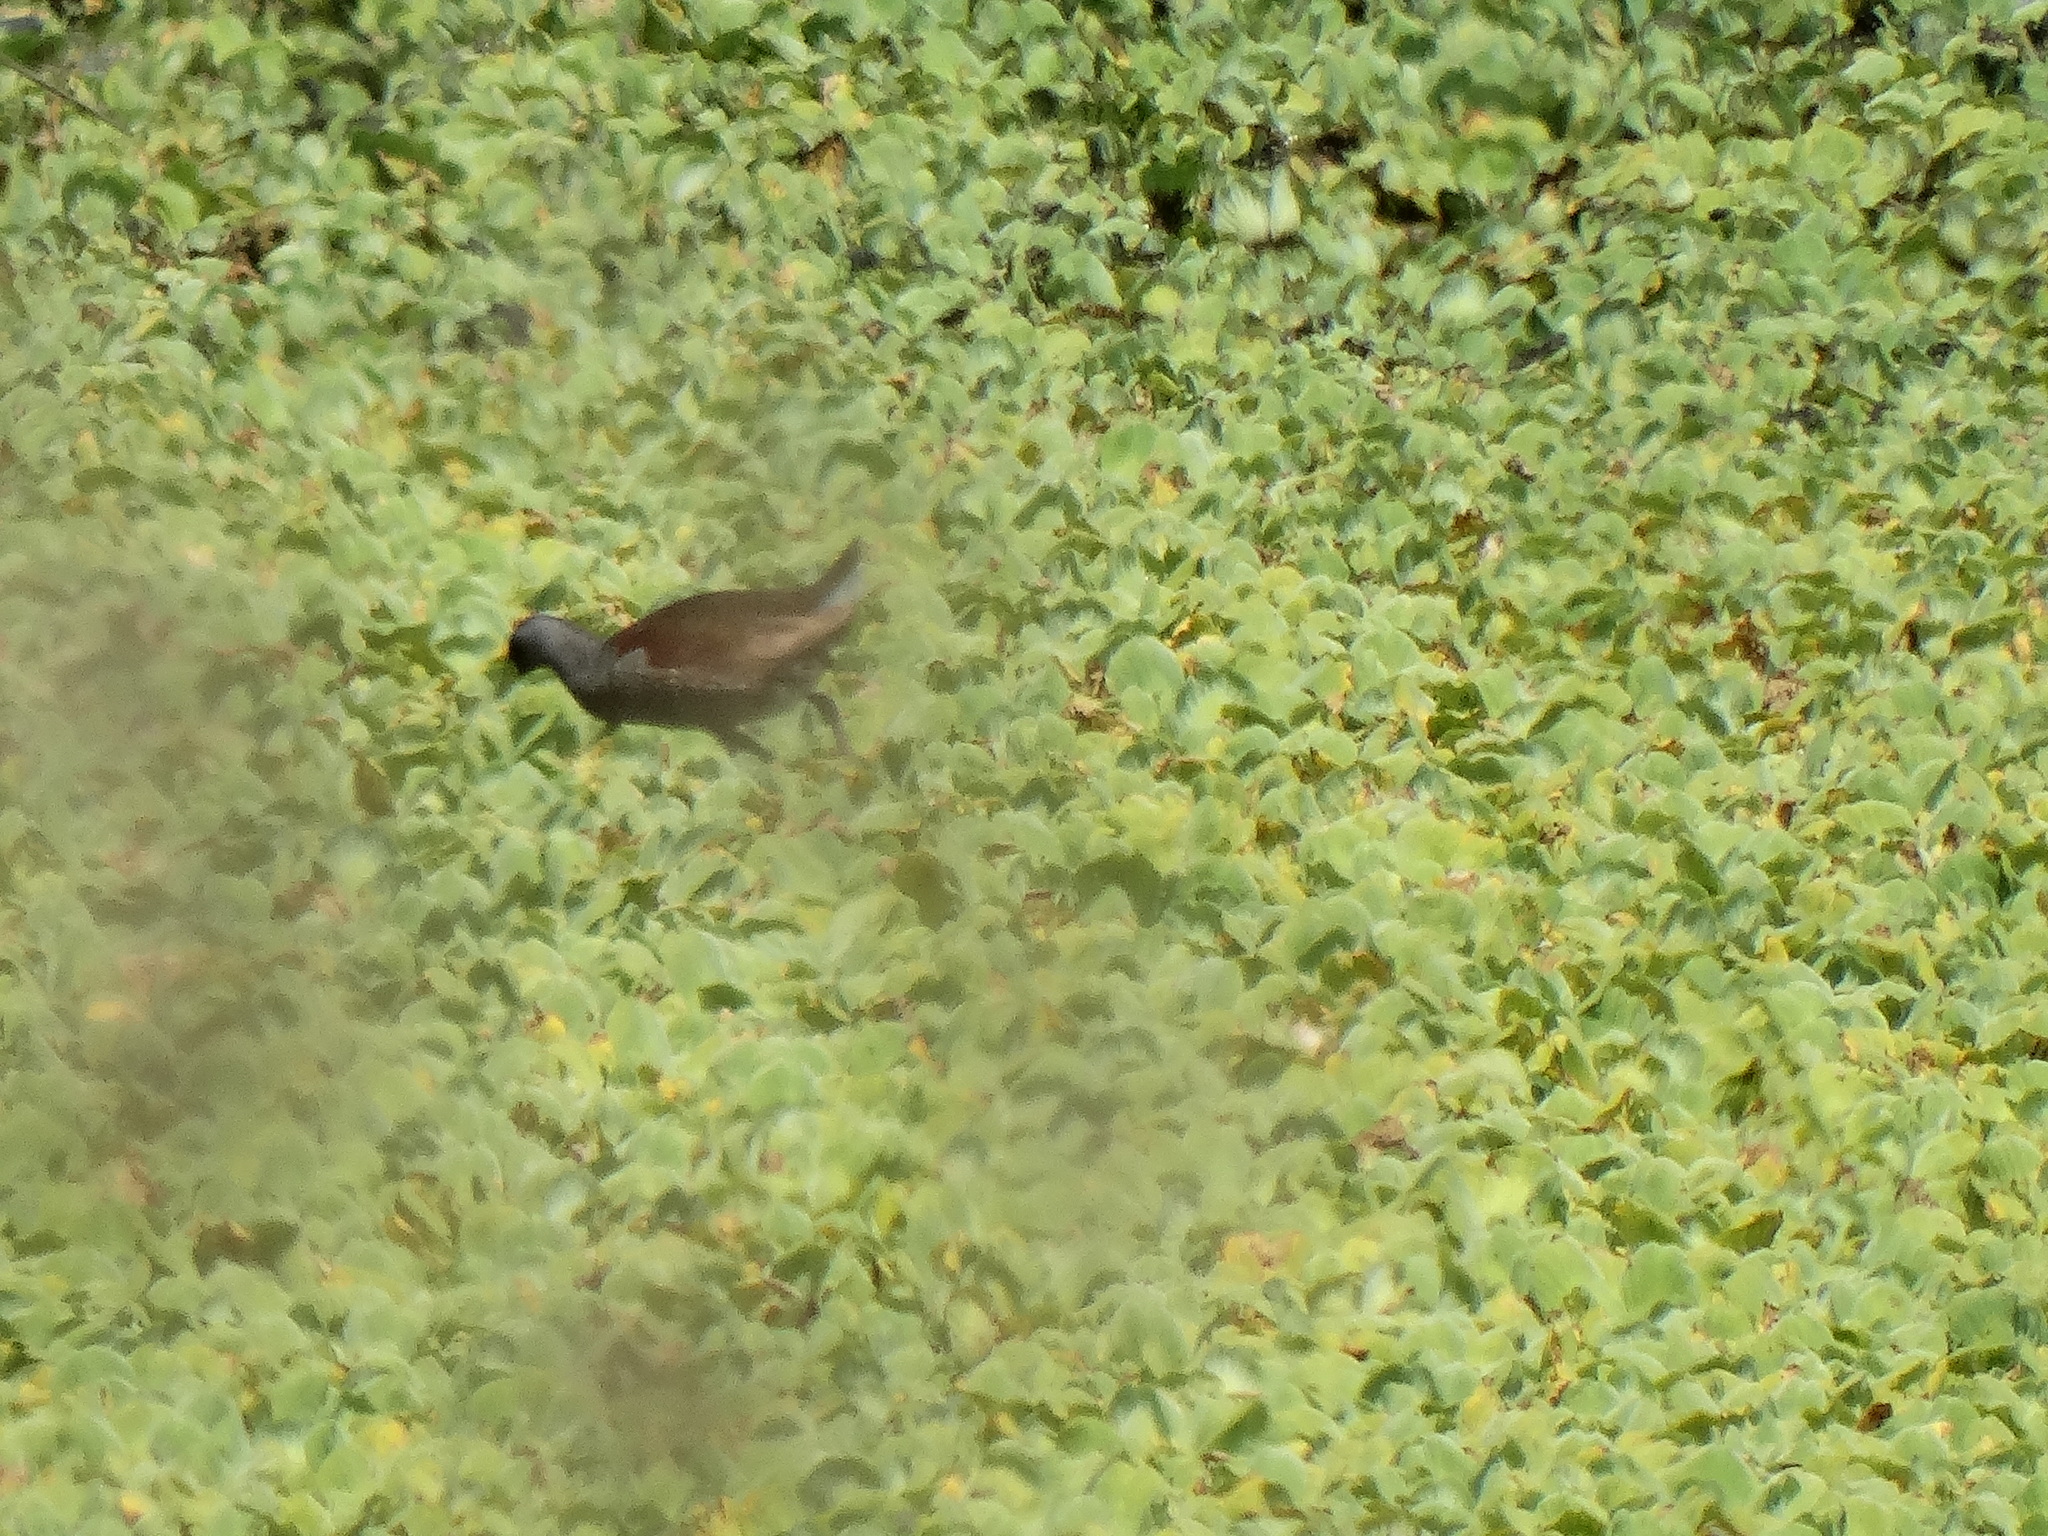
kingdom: Animalia
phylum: Chordata
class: Aves
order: Gruiformes
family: Rallidae
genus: Gallinula
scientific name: Gallinula melanops
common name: Spot-flanked gallinule
